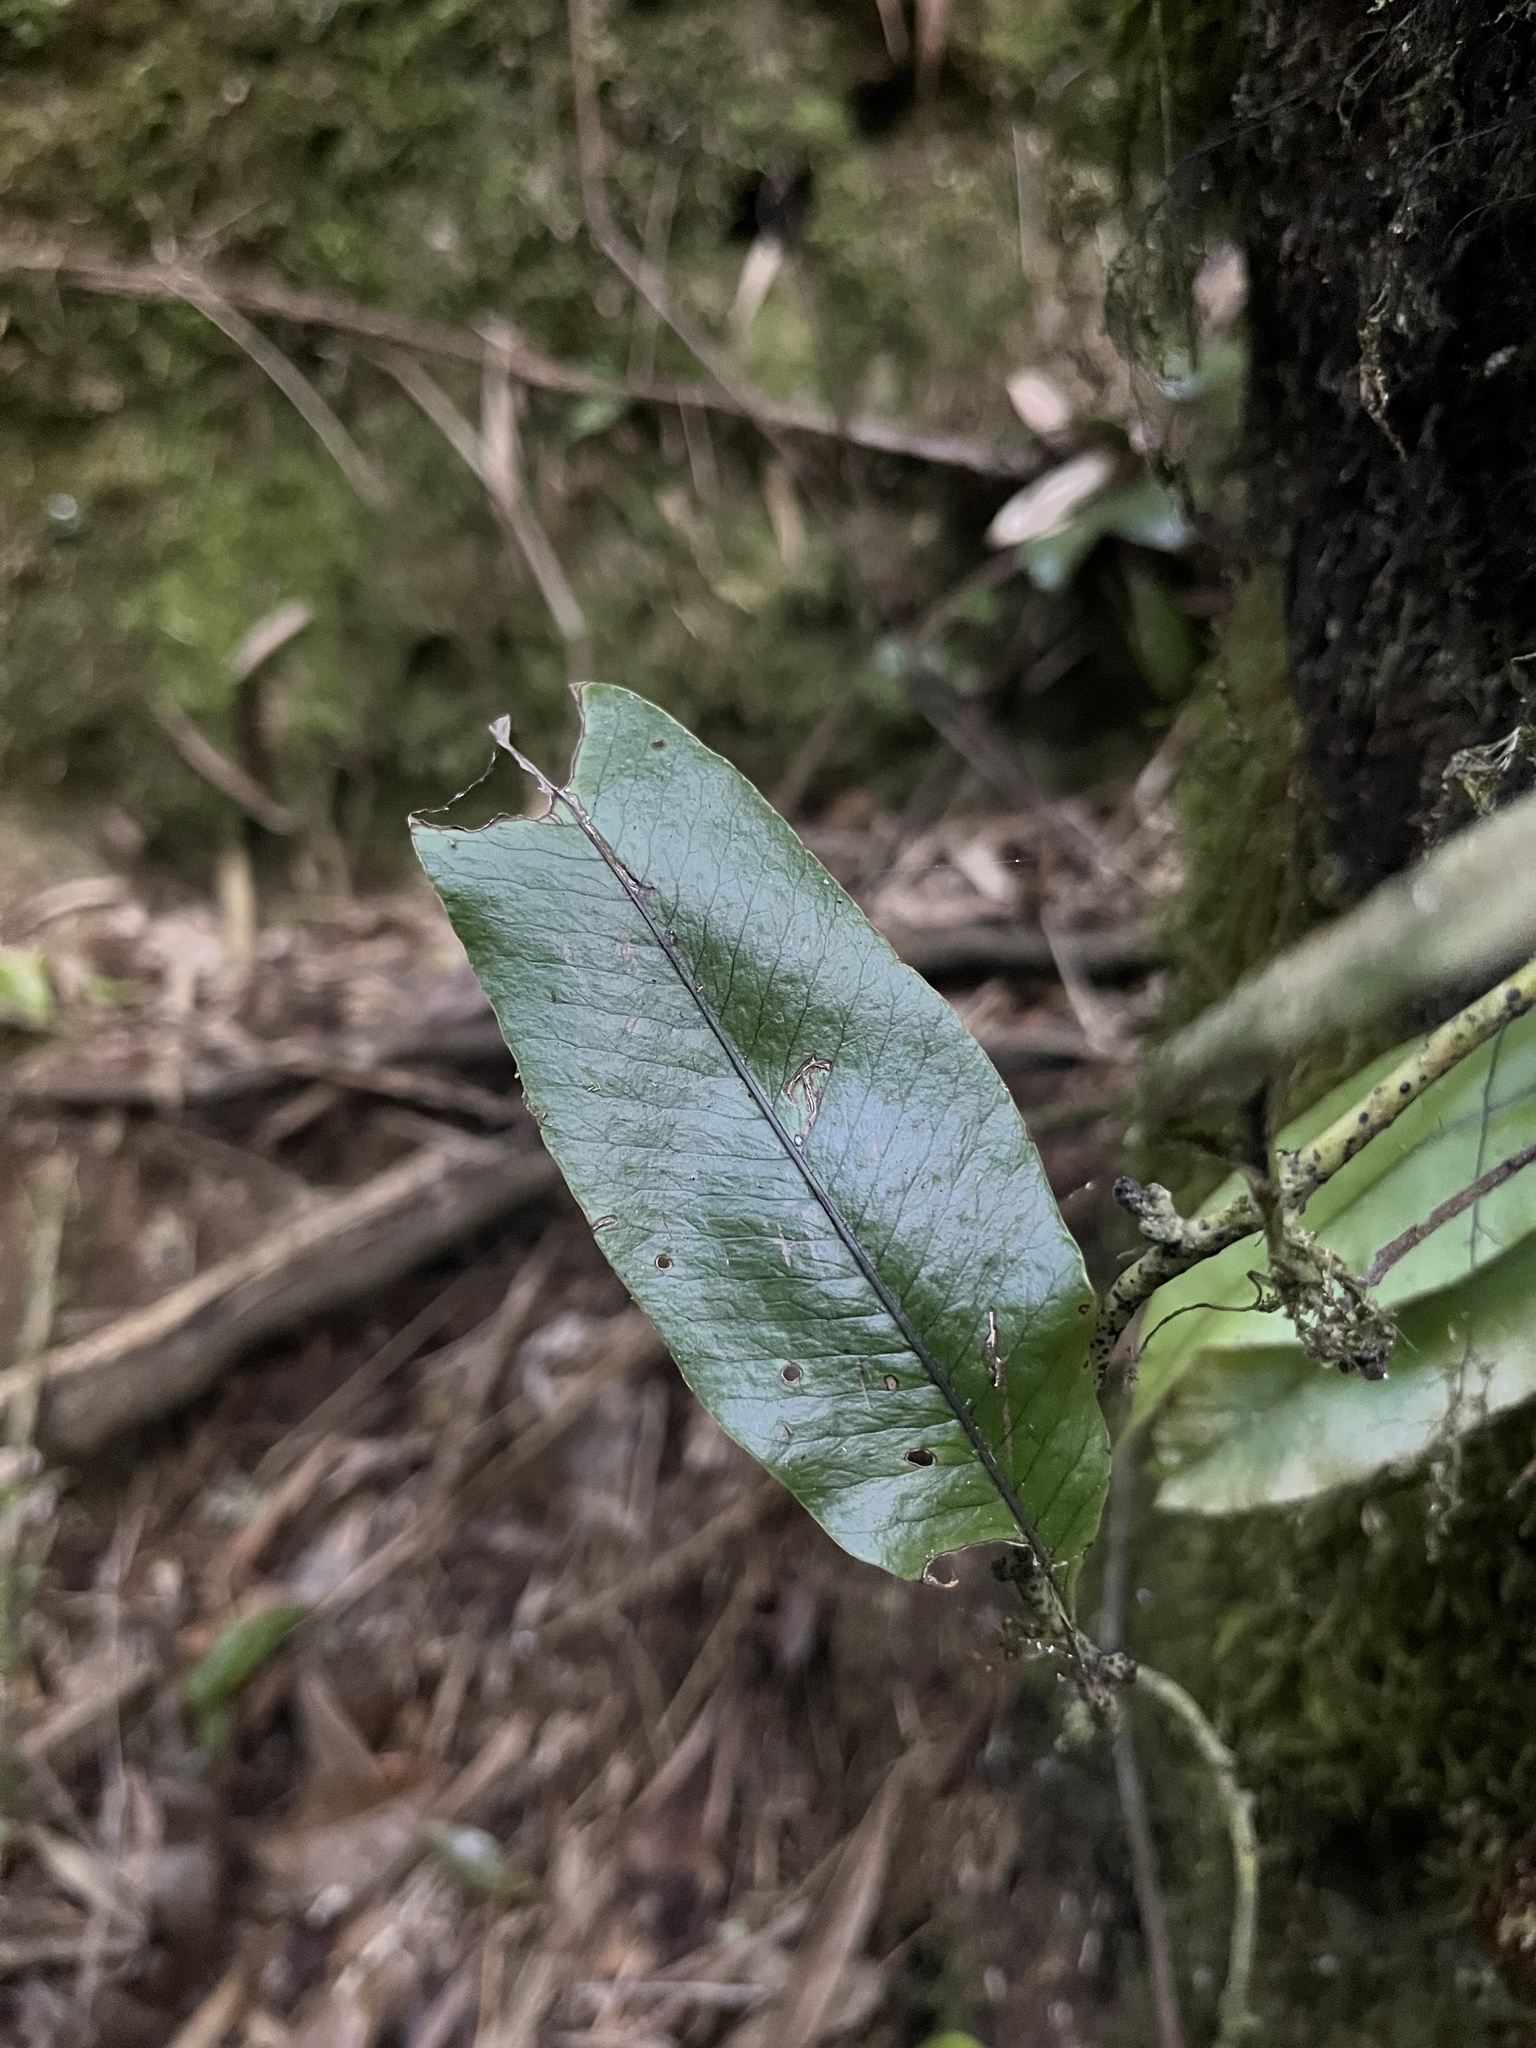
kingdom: Plantae
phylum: Tracheophyta
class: Polypodiopsida
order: Polypodiales
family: Polypodiaceae
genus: Serpocaulon
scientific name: Serpocaulon levigatum
